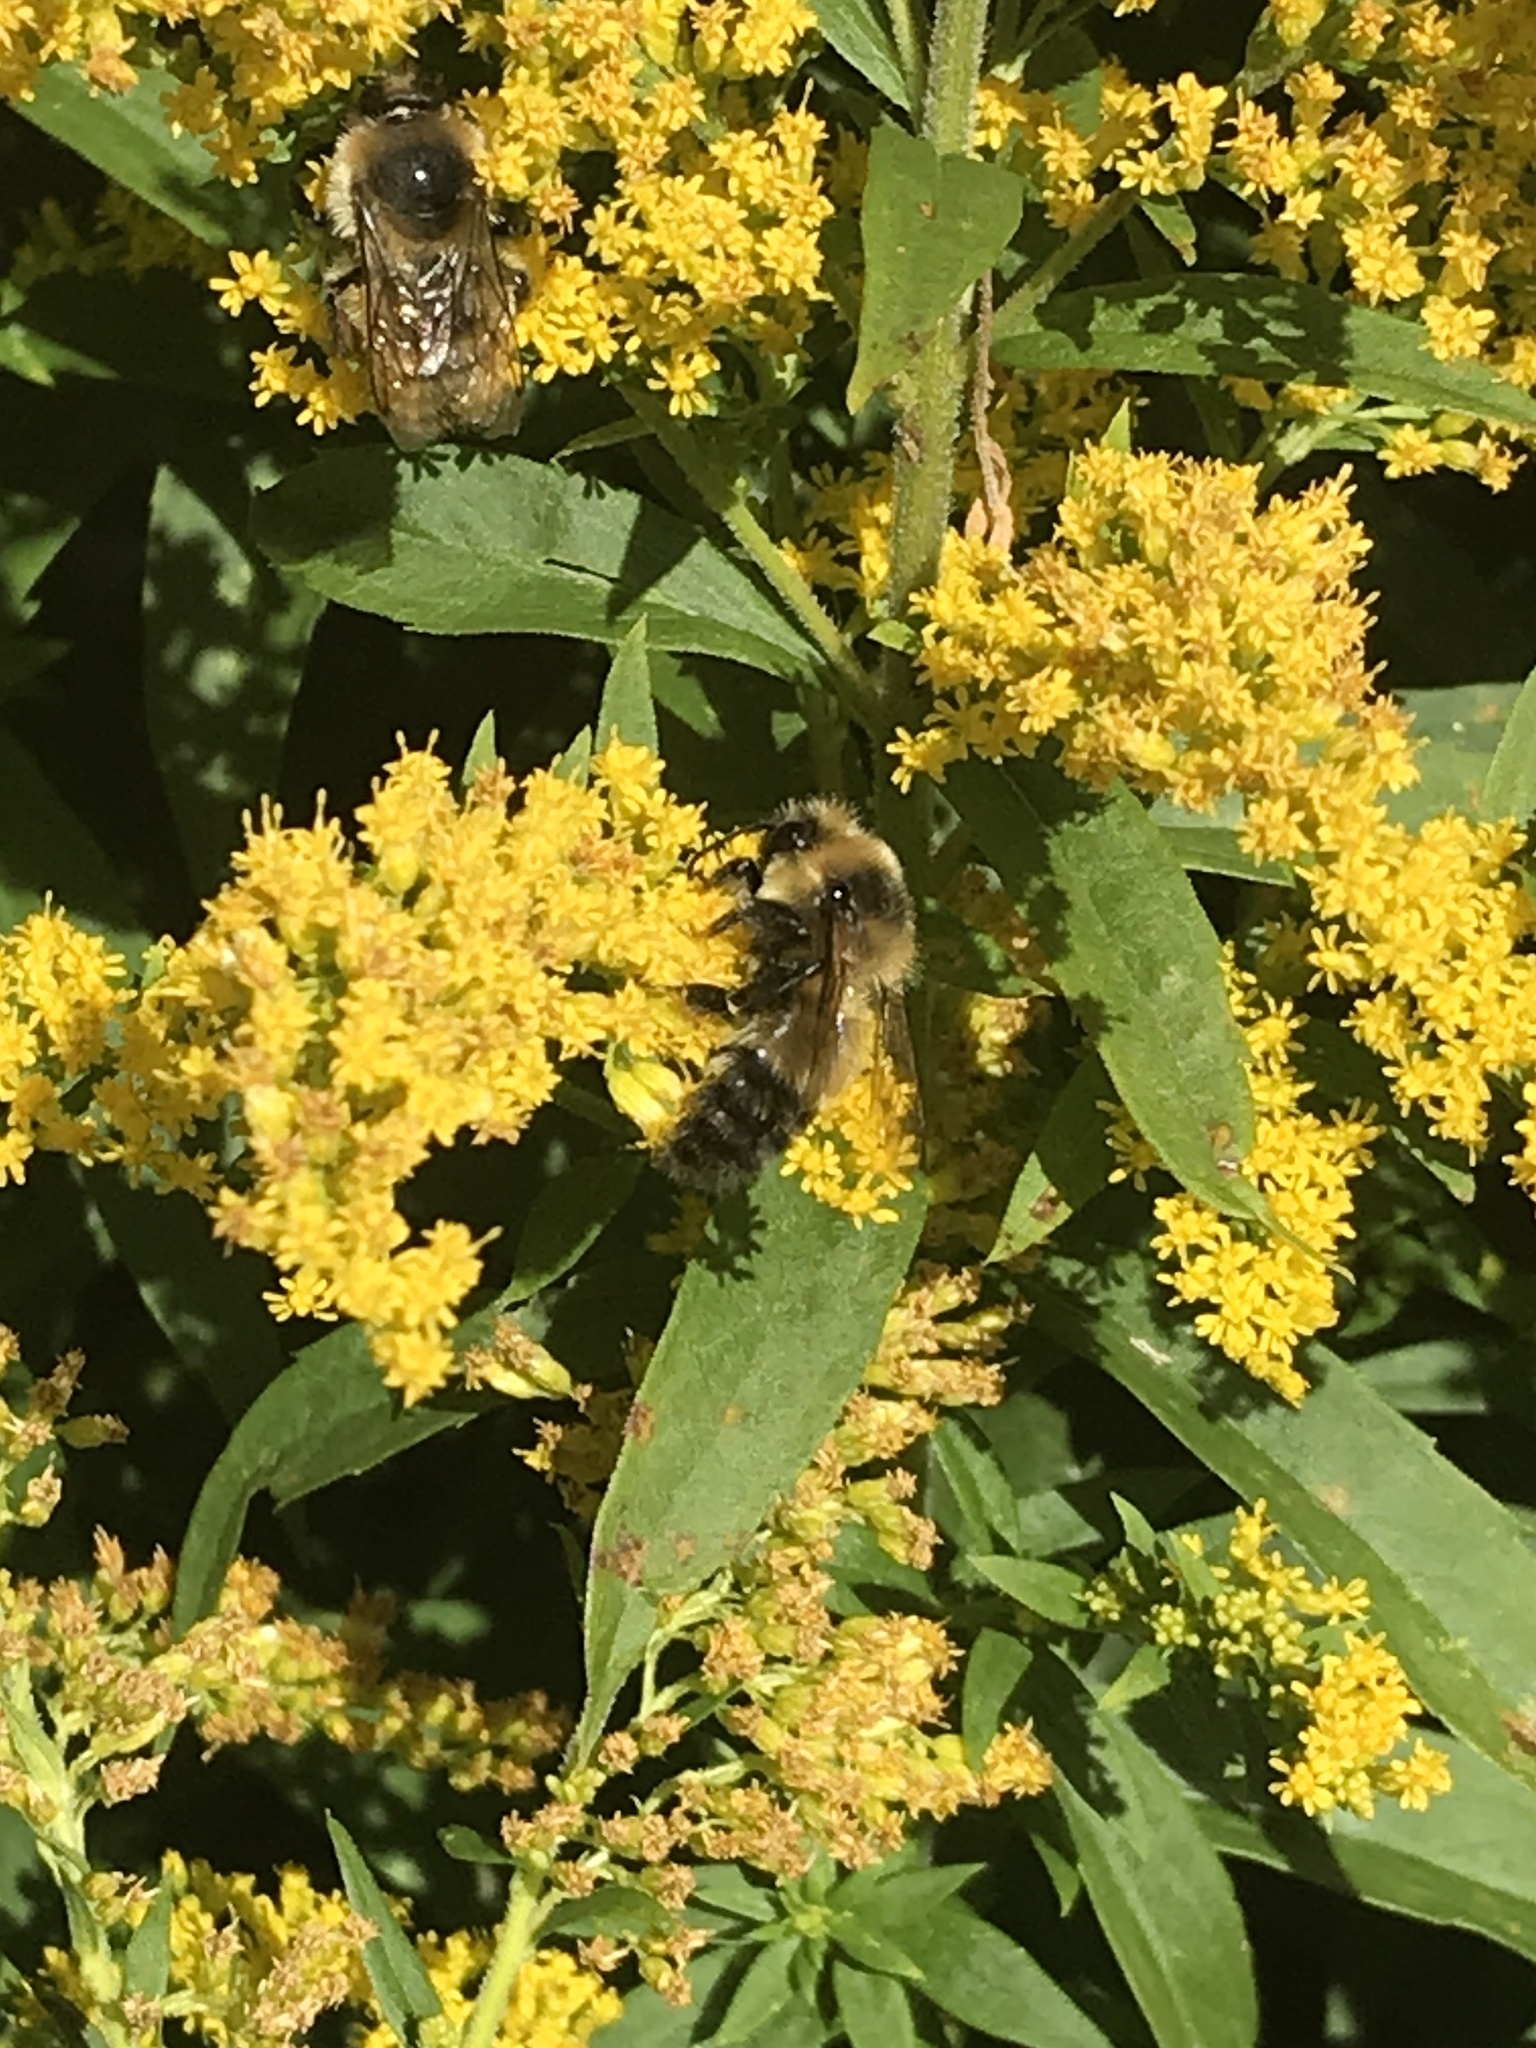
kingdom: Animalia
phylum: Arthropoda
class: Insecta
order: Hymenoptera
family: Apidae
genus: Bombus
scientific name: Bombus rufocinctus
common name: Red-belted bumble bee
